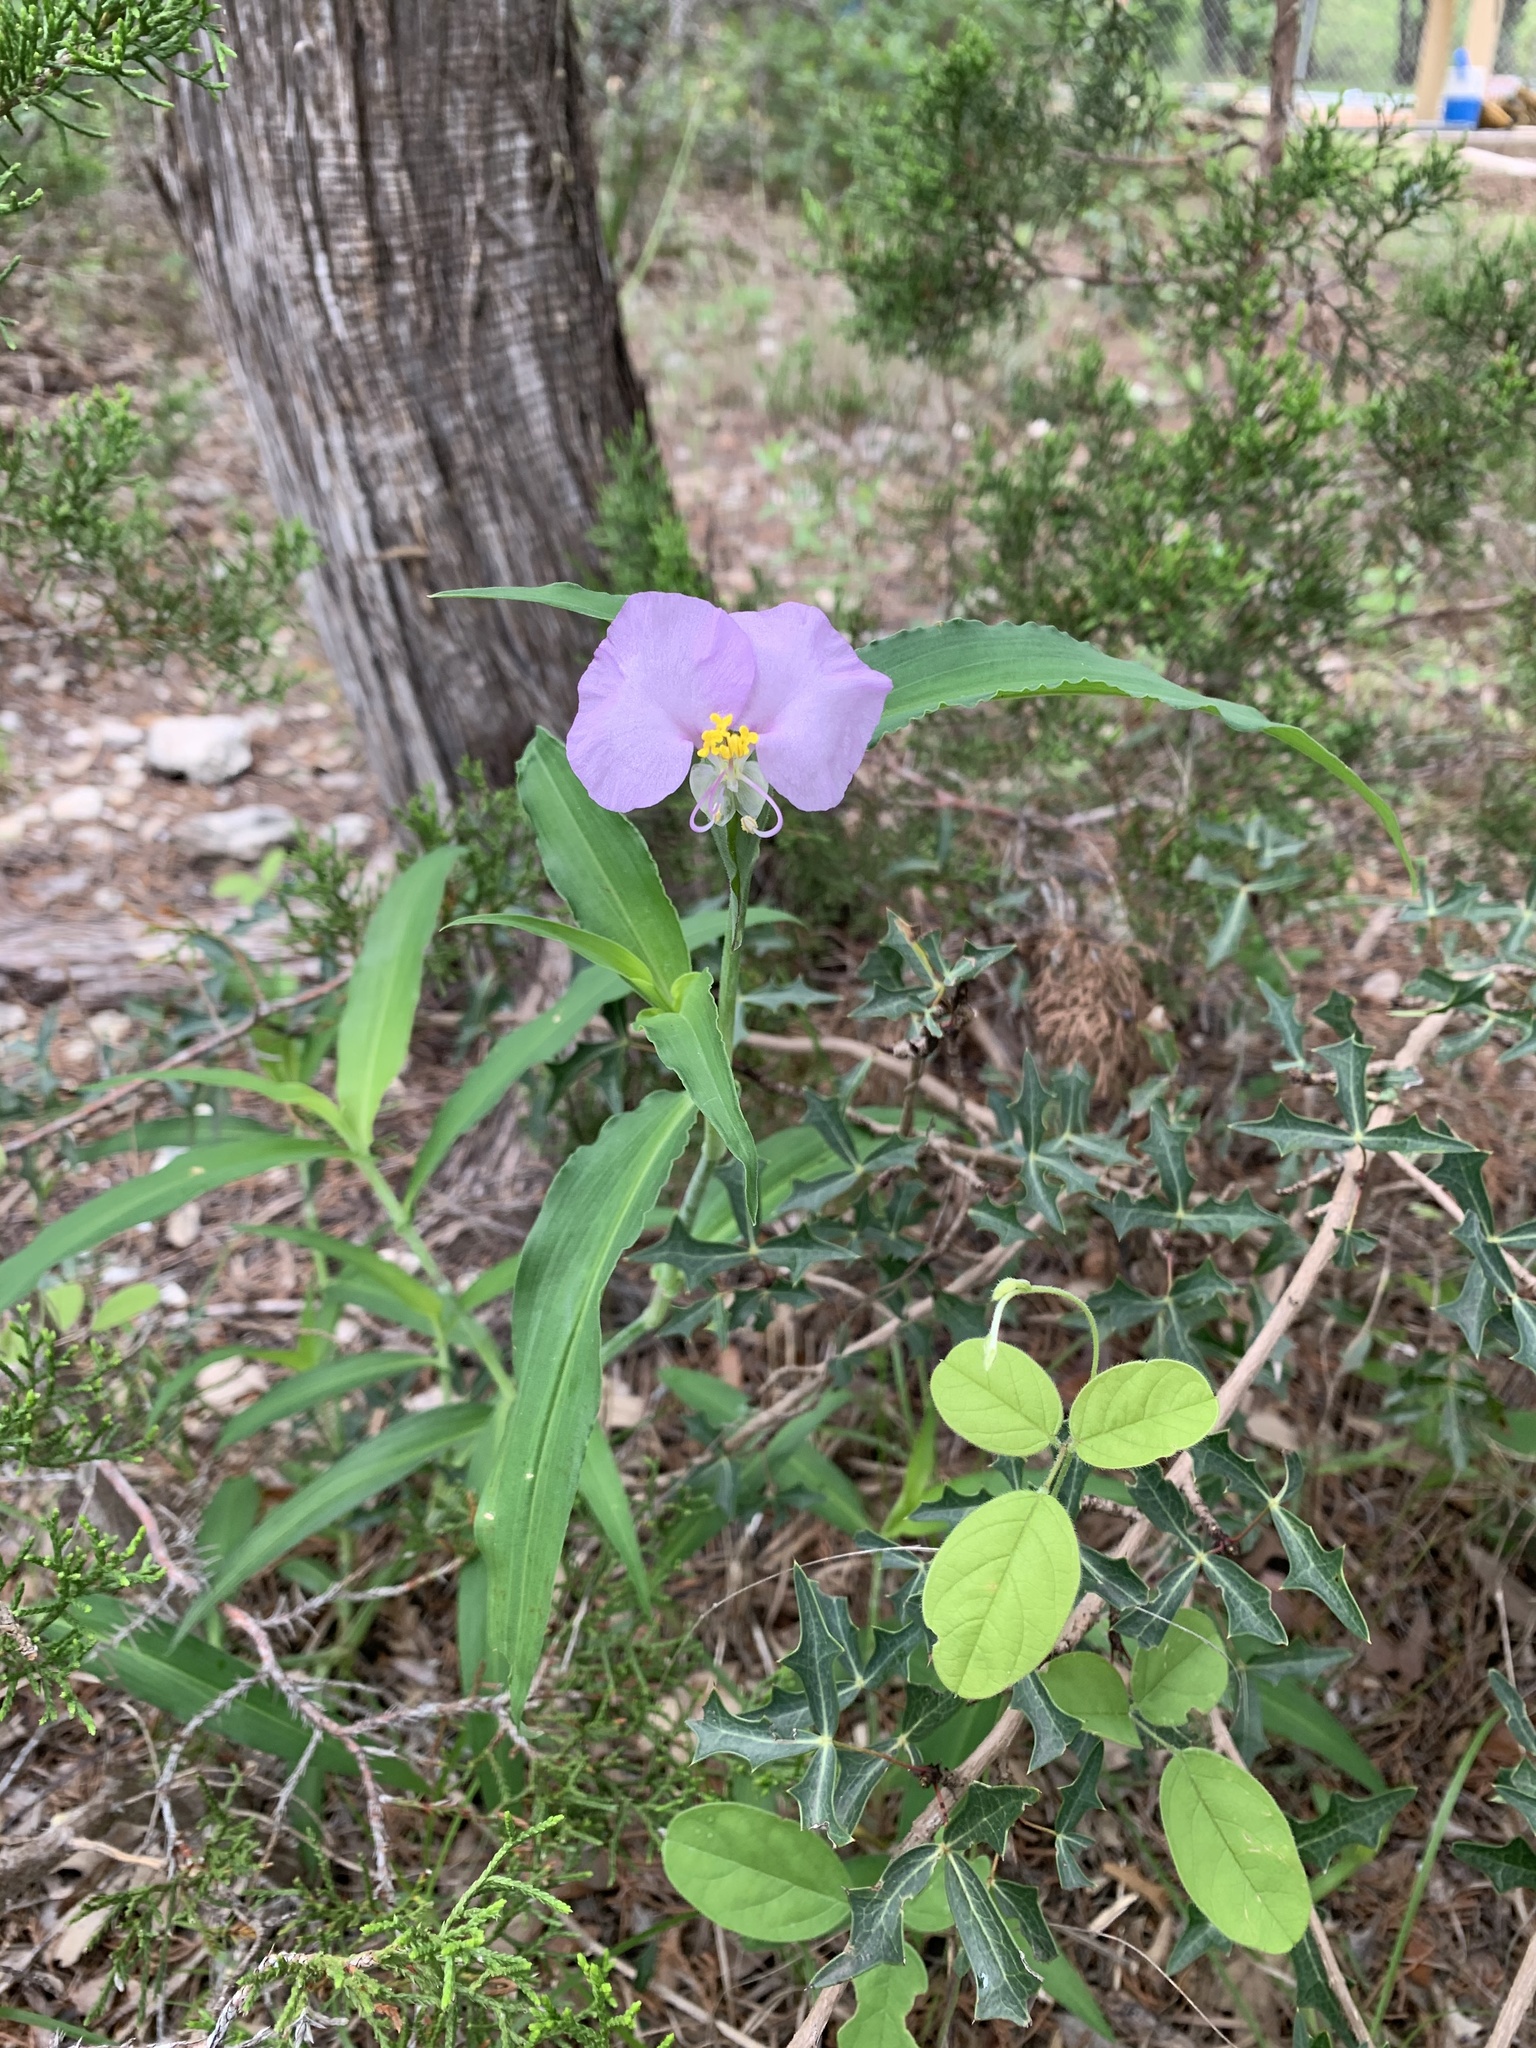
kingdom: Plantae
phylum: Tracheophyta
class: Liliopsida
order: Commelinales
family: Commelinaceae
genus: Commelina
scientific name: Commelina erecta
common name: Blousel blommetjie
